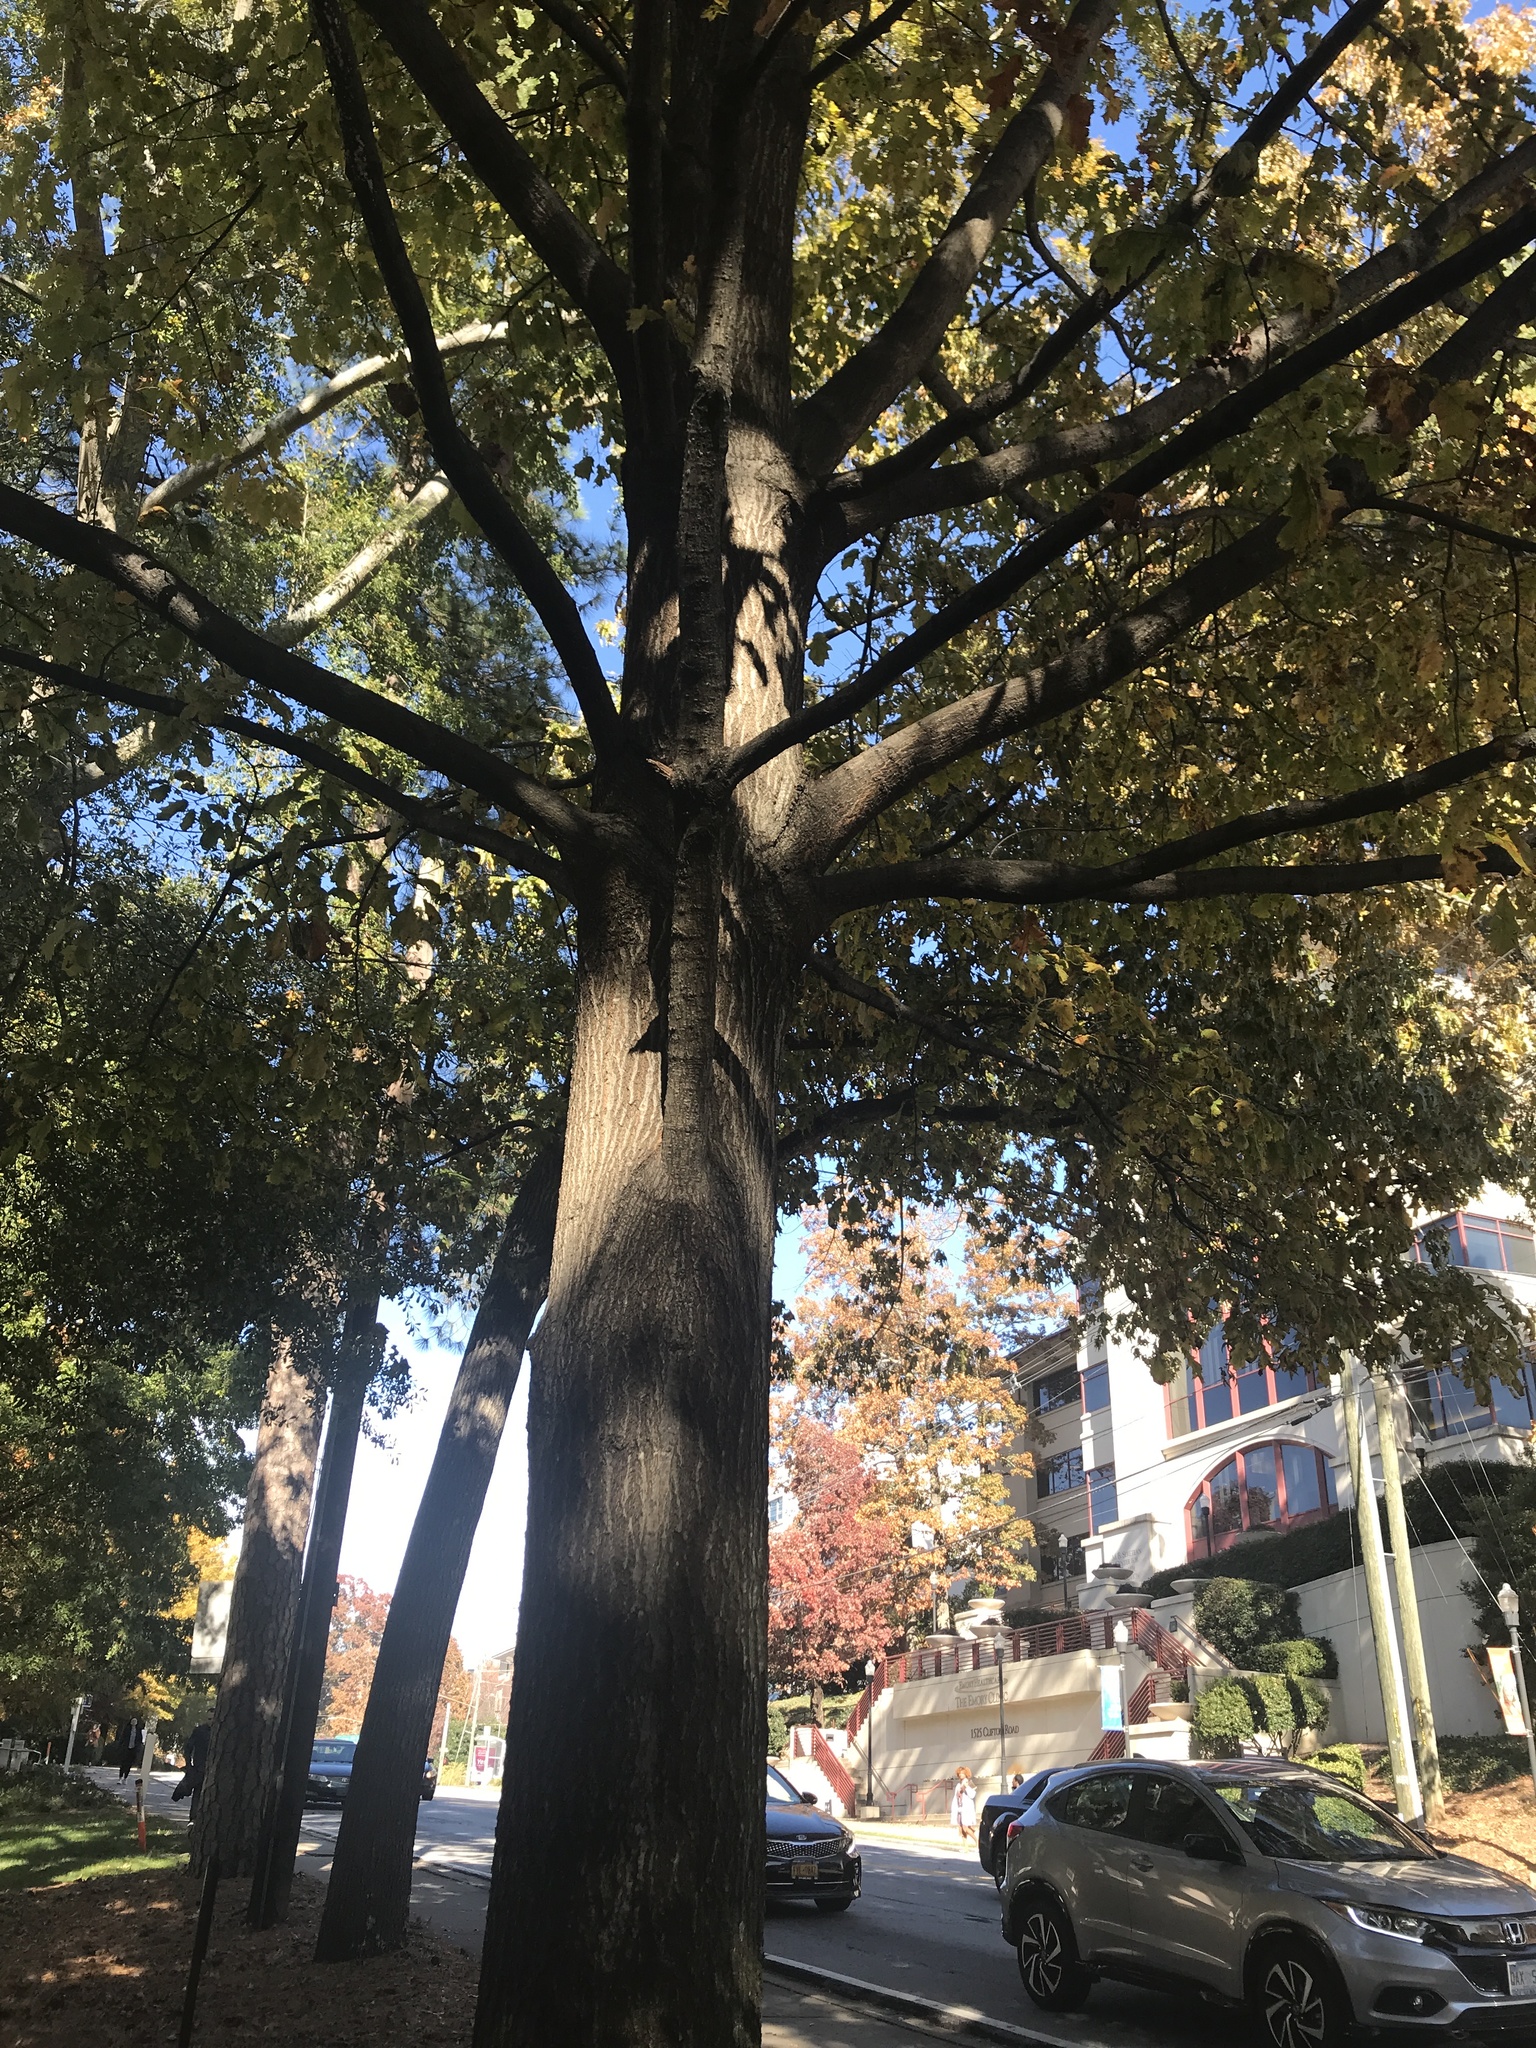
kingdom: Plantae
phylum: Tracheophyta
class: Magnoliopsida
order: Fagales
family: Fagaceae
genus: Quercus
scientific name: Quercus rubra
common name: Red oak
